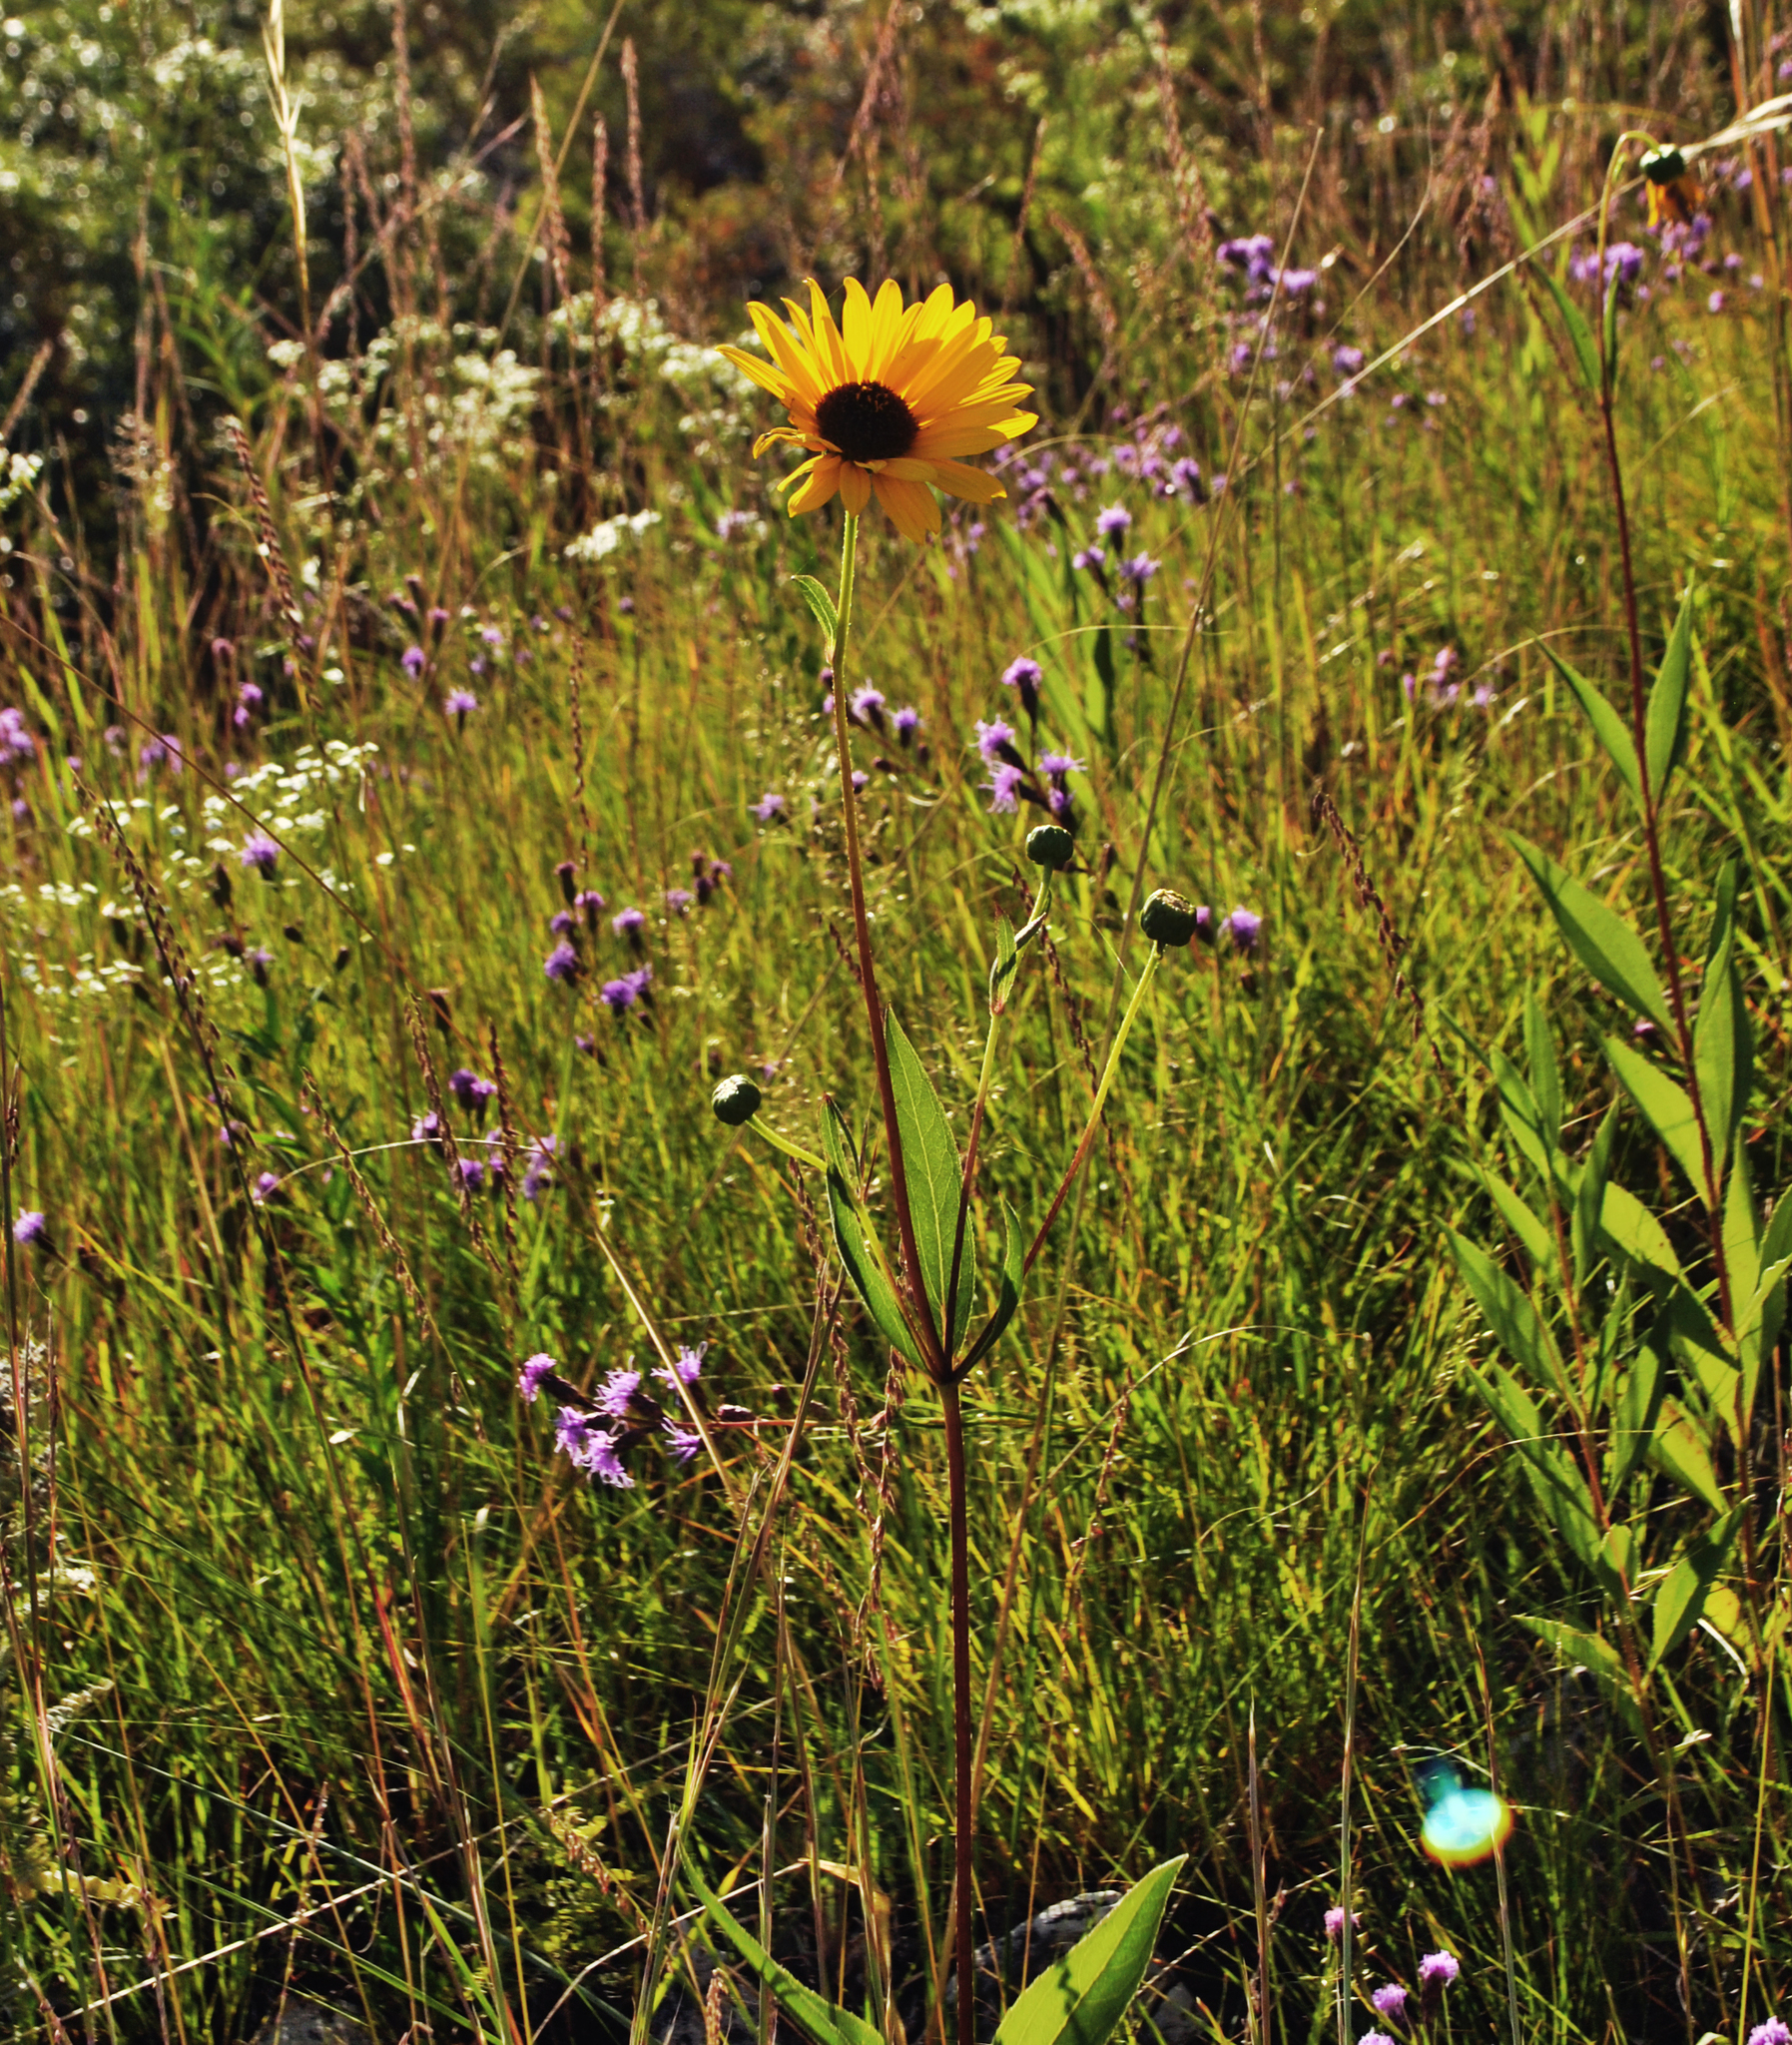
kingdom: Plantae
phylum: Tracheophyta
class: Magnoliopsida
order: Asterales
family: Asteraceae
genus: Helianthus
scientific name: Helianthus pauciflorus
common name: Stiff sunflower
